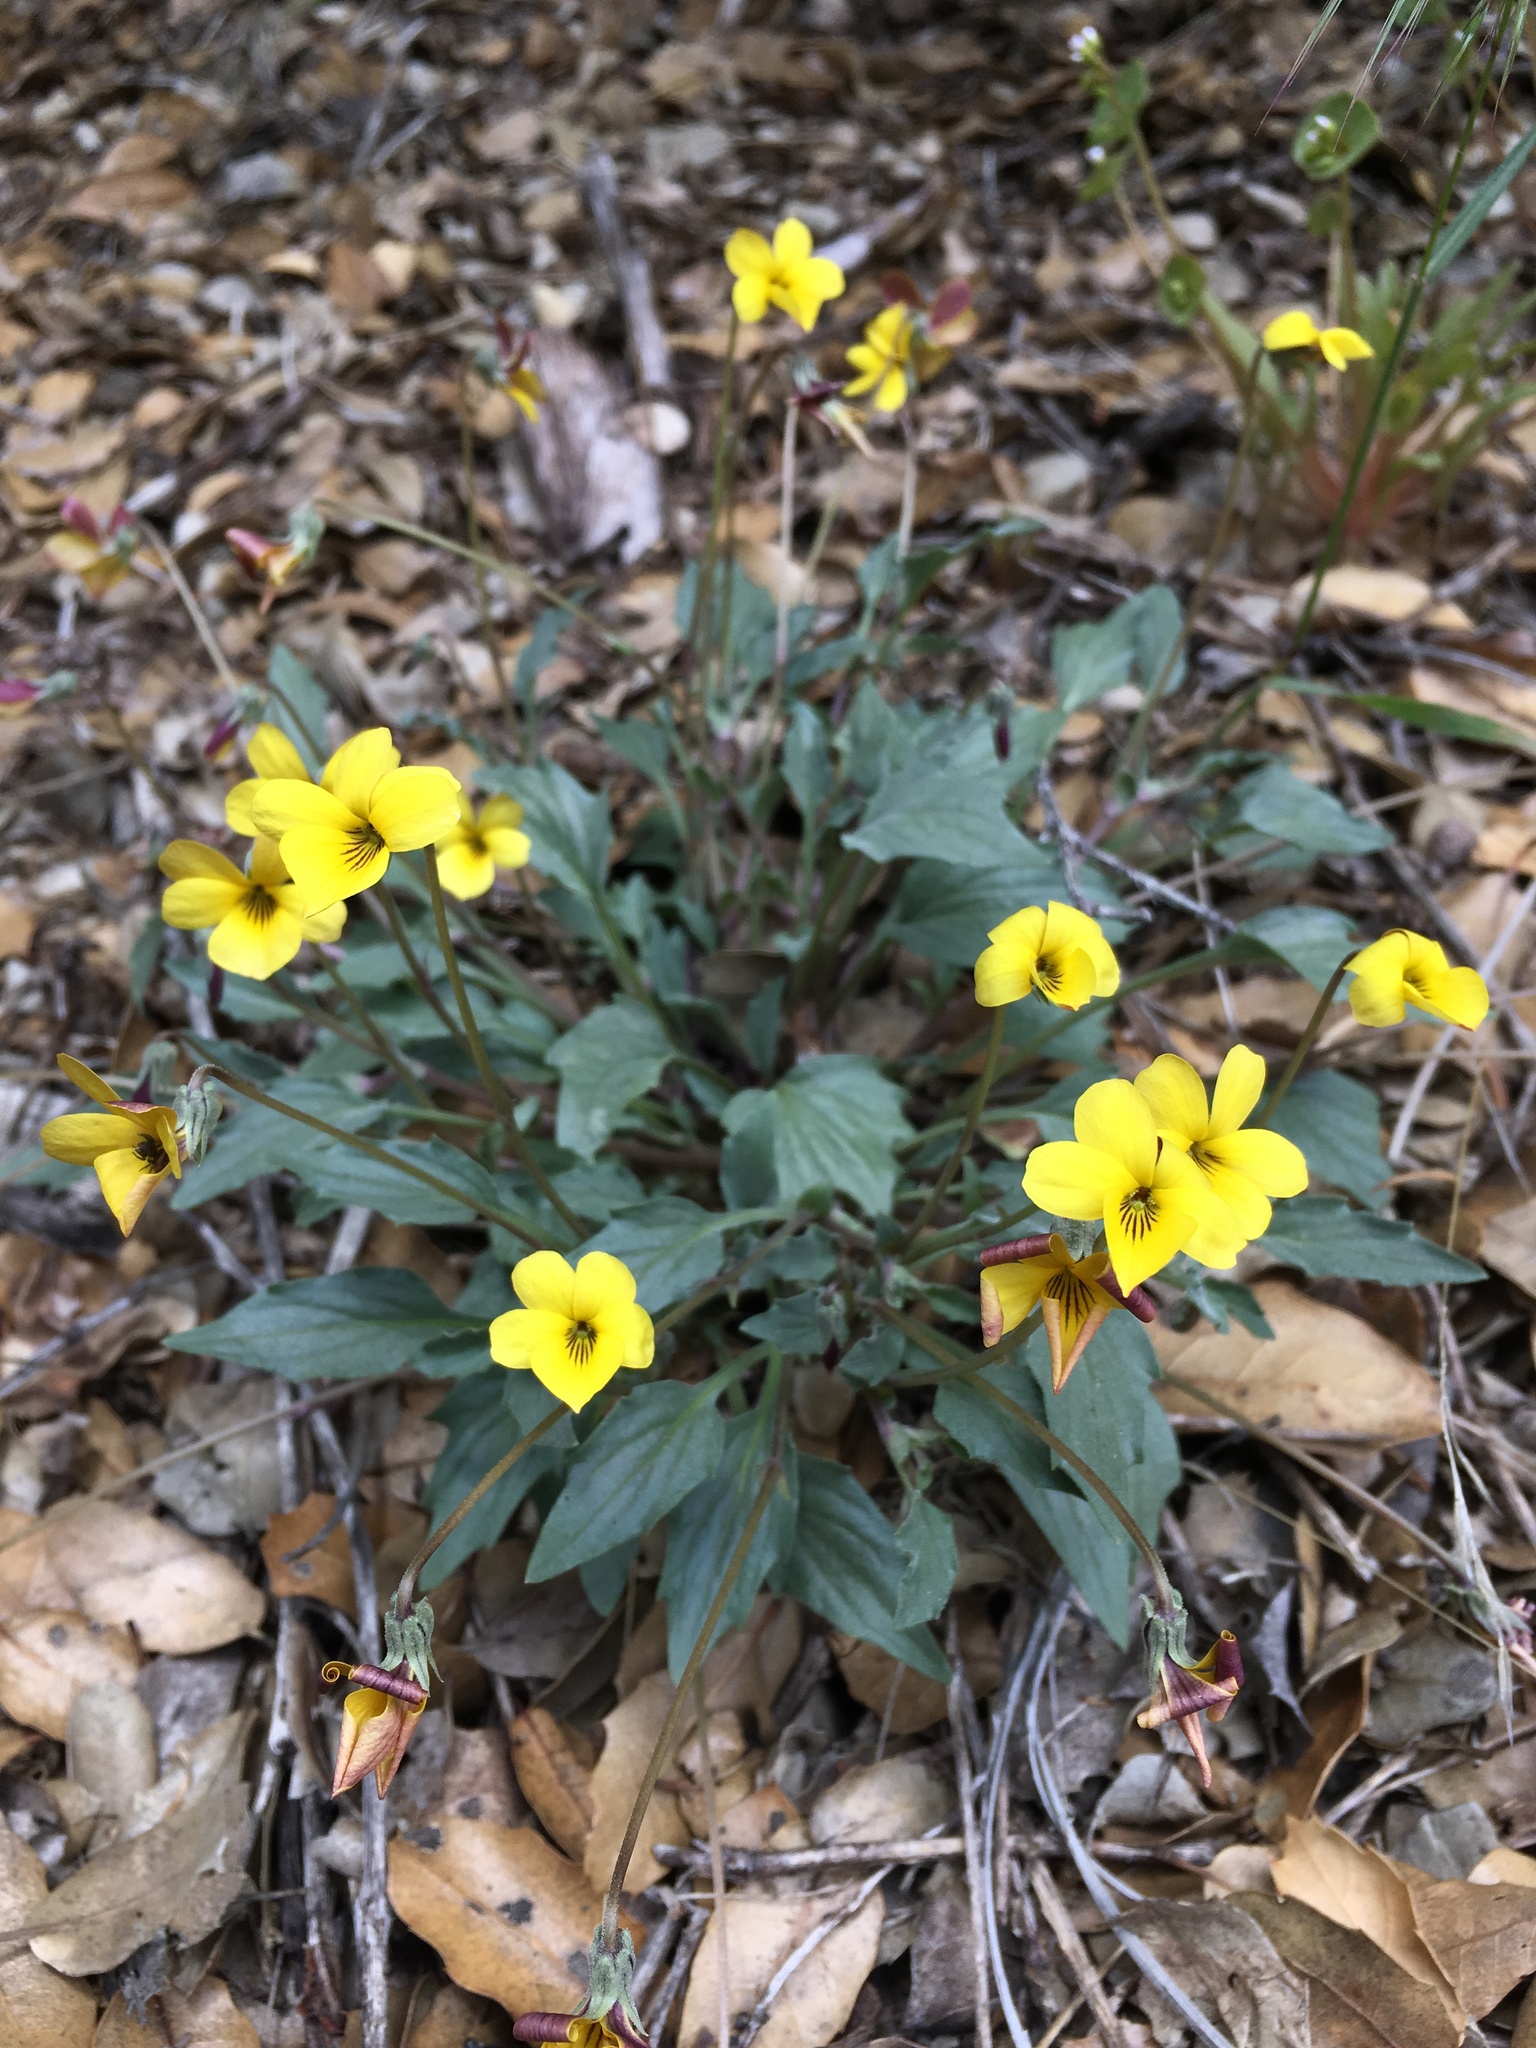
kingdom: Plantae
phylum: Tracheophyta
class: Magnoliopsida
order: Malpighiales
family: Violaceae
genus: Viola
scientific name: Viola purpurea
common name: Pine violet
